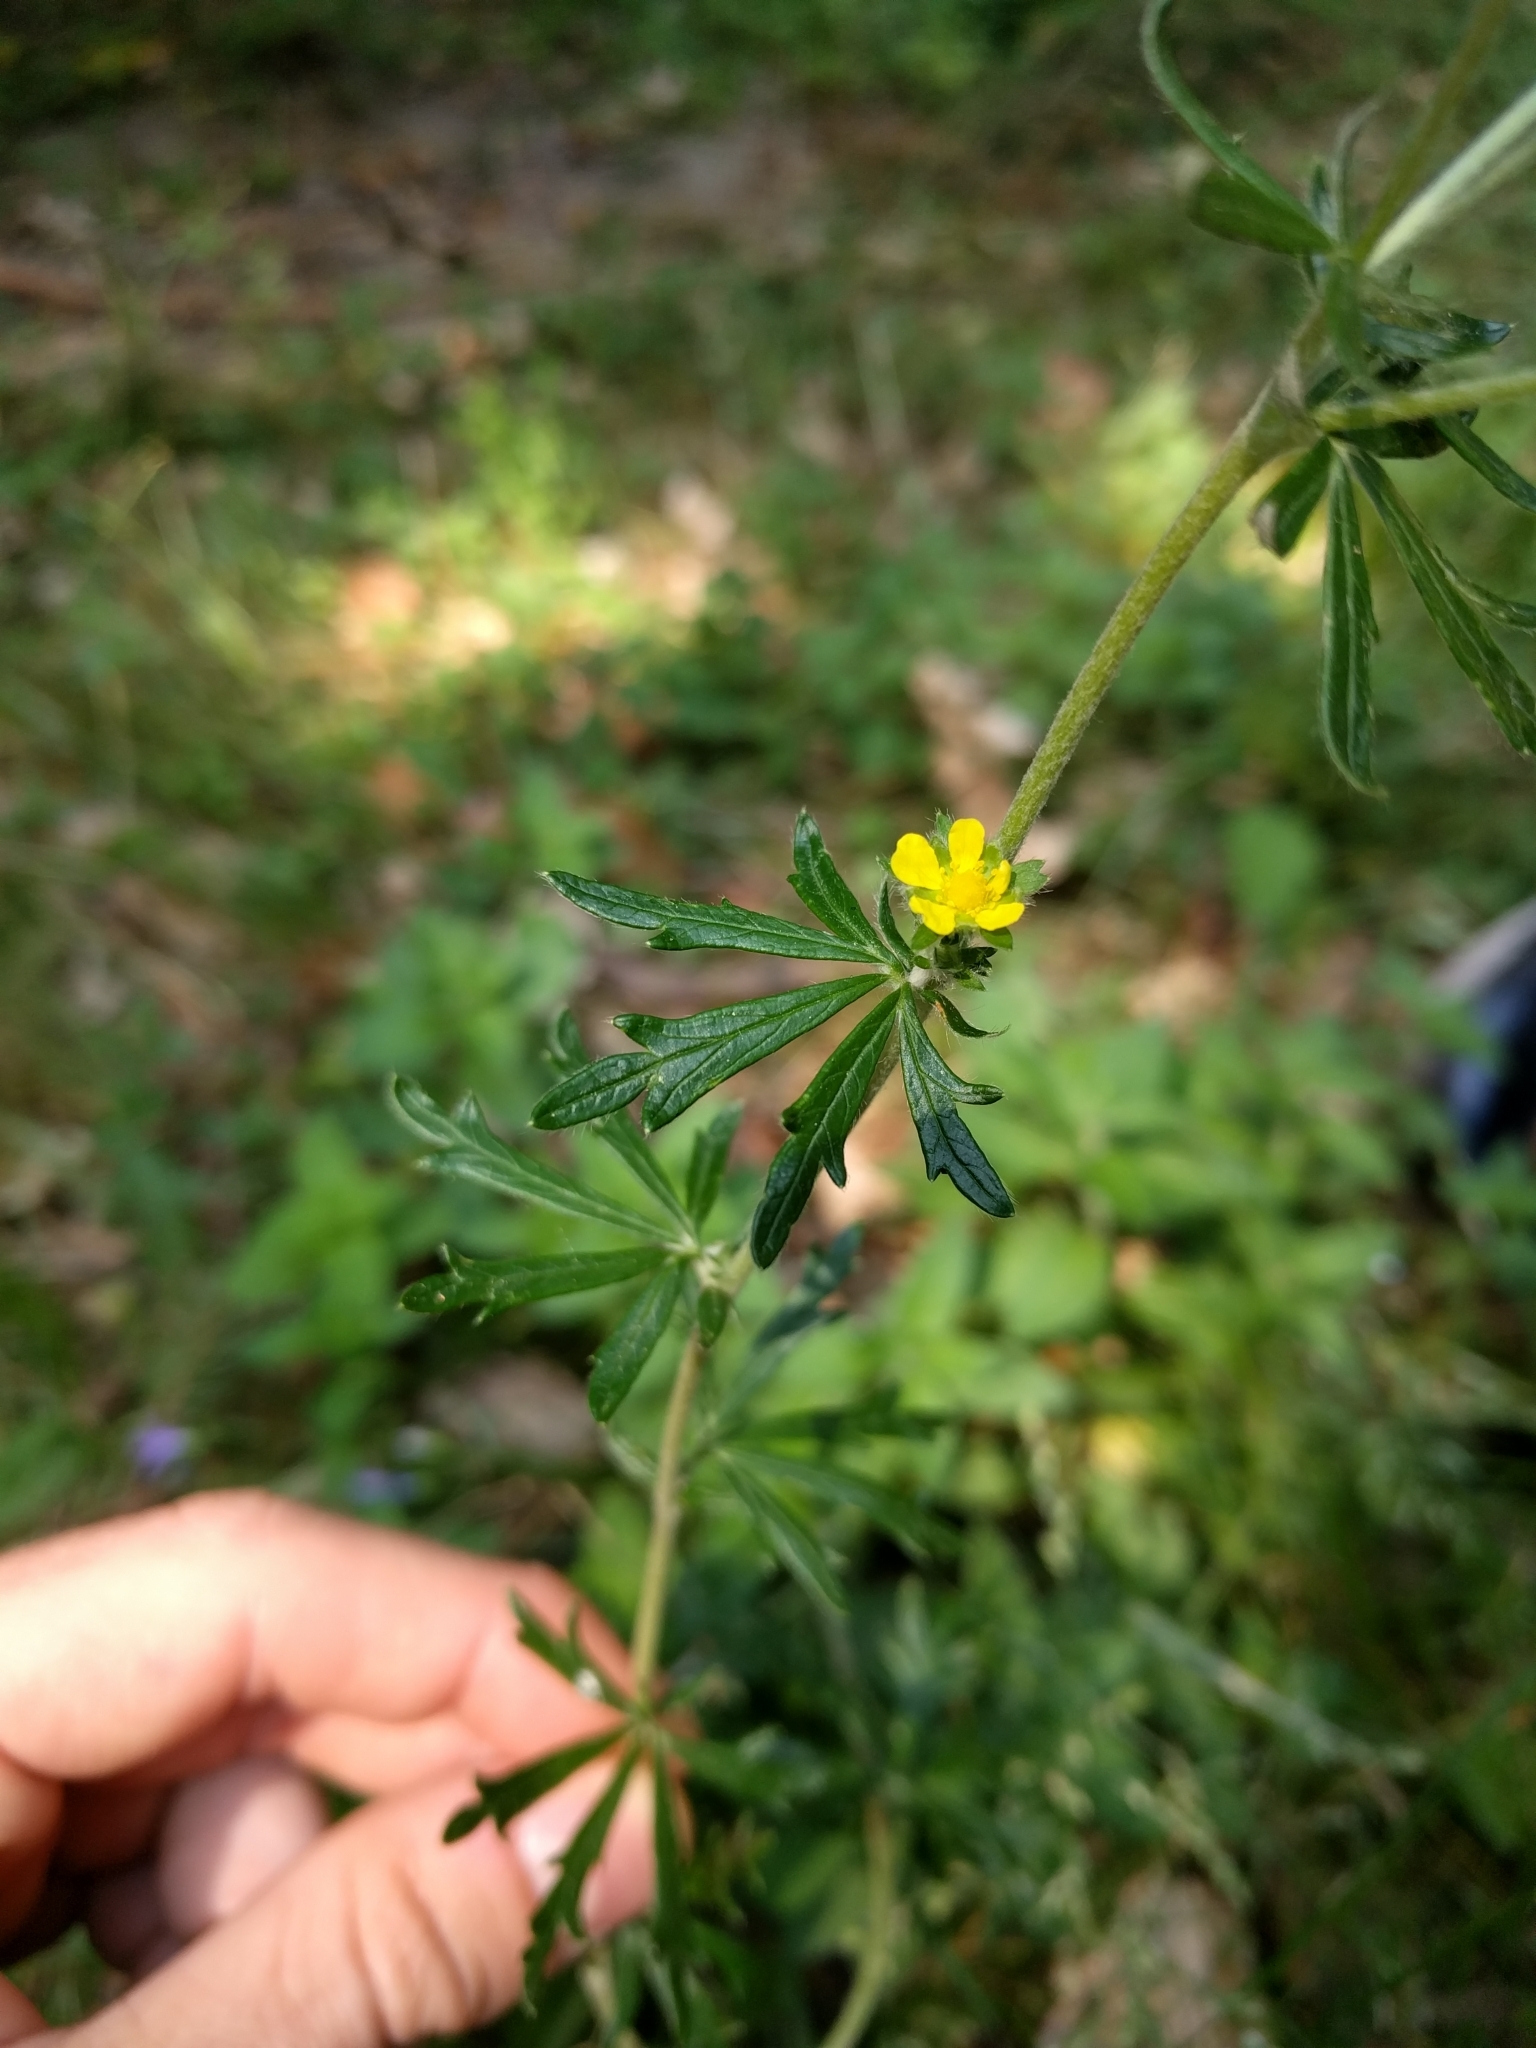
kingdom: Plantae
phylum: Tracheophyta
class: Magnoliopsida
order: Rosales
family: Rosaceae
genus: Potentilla
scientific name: Potentilla argentea
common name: Hoary cinquefoil
